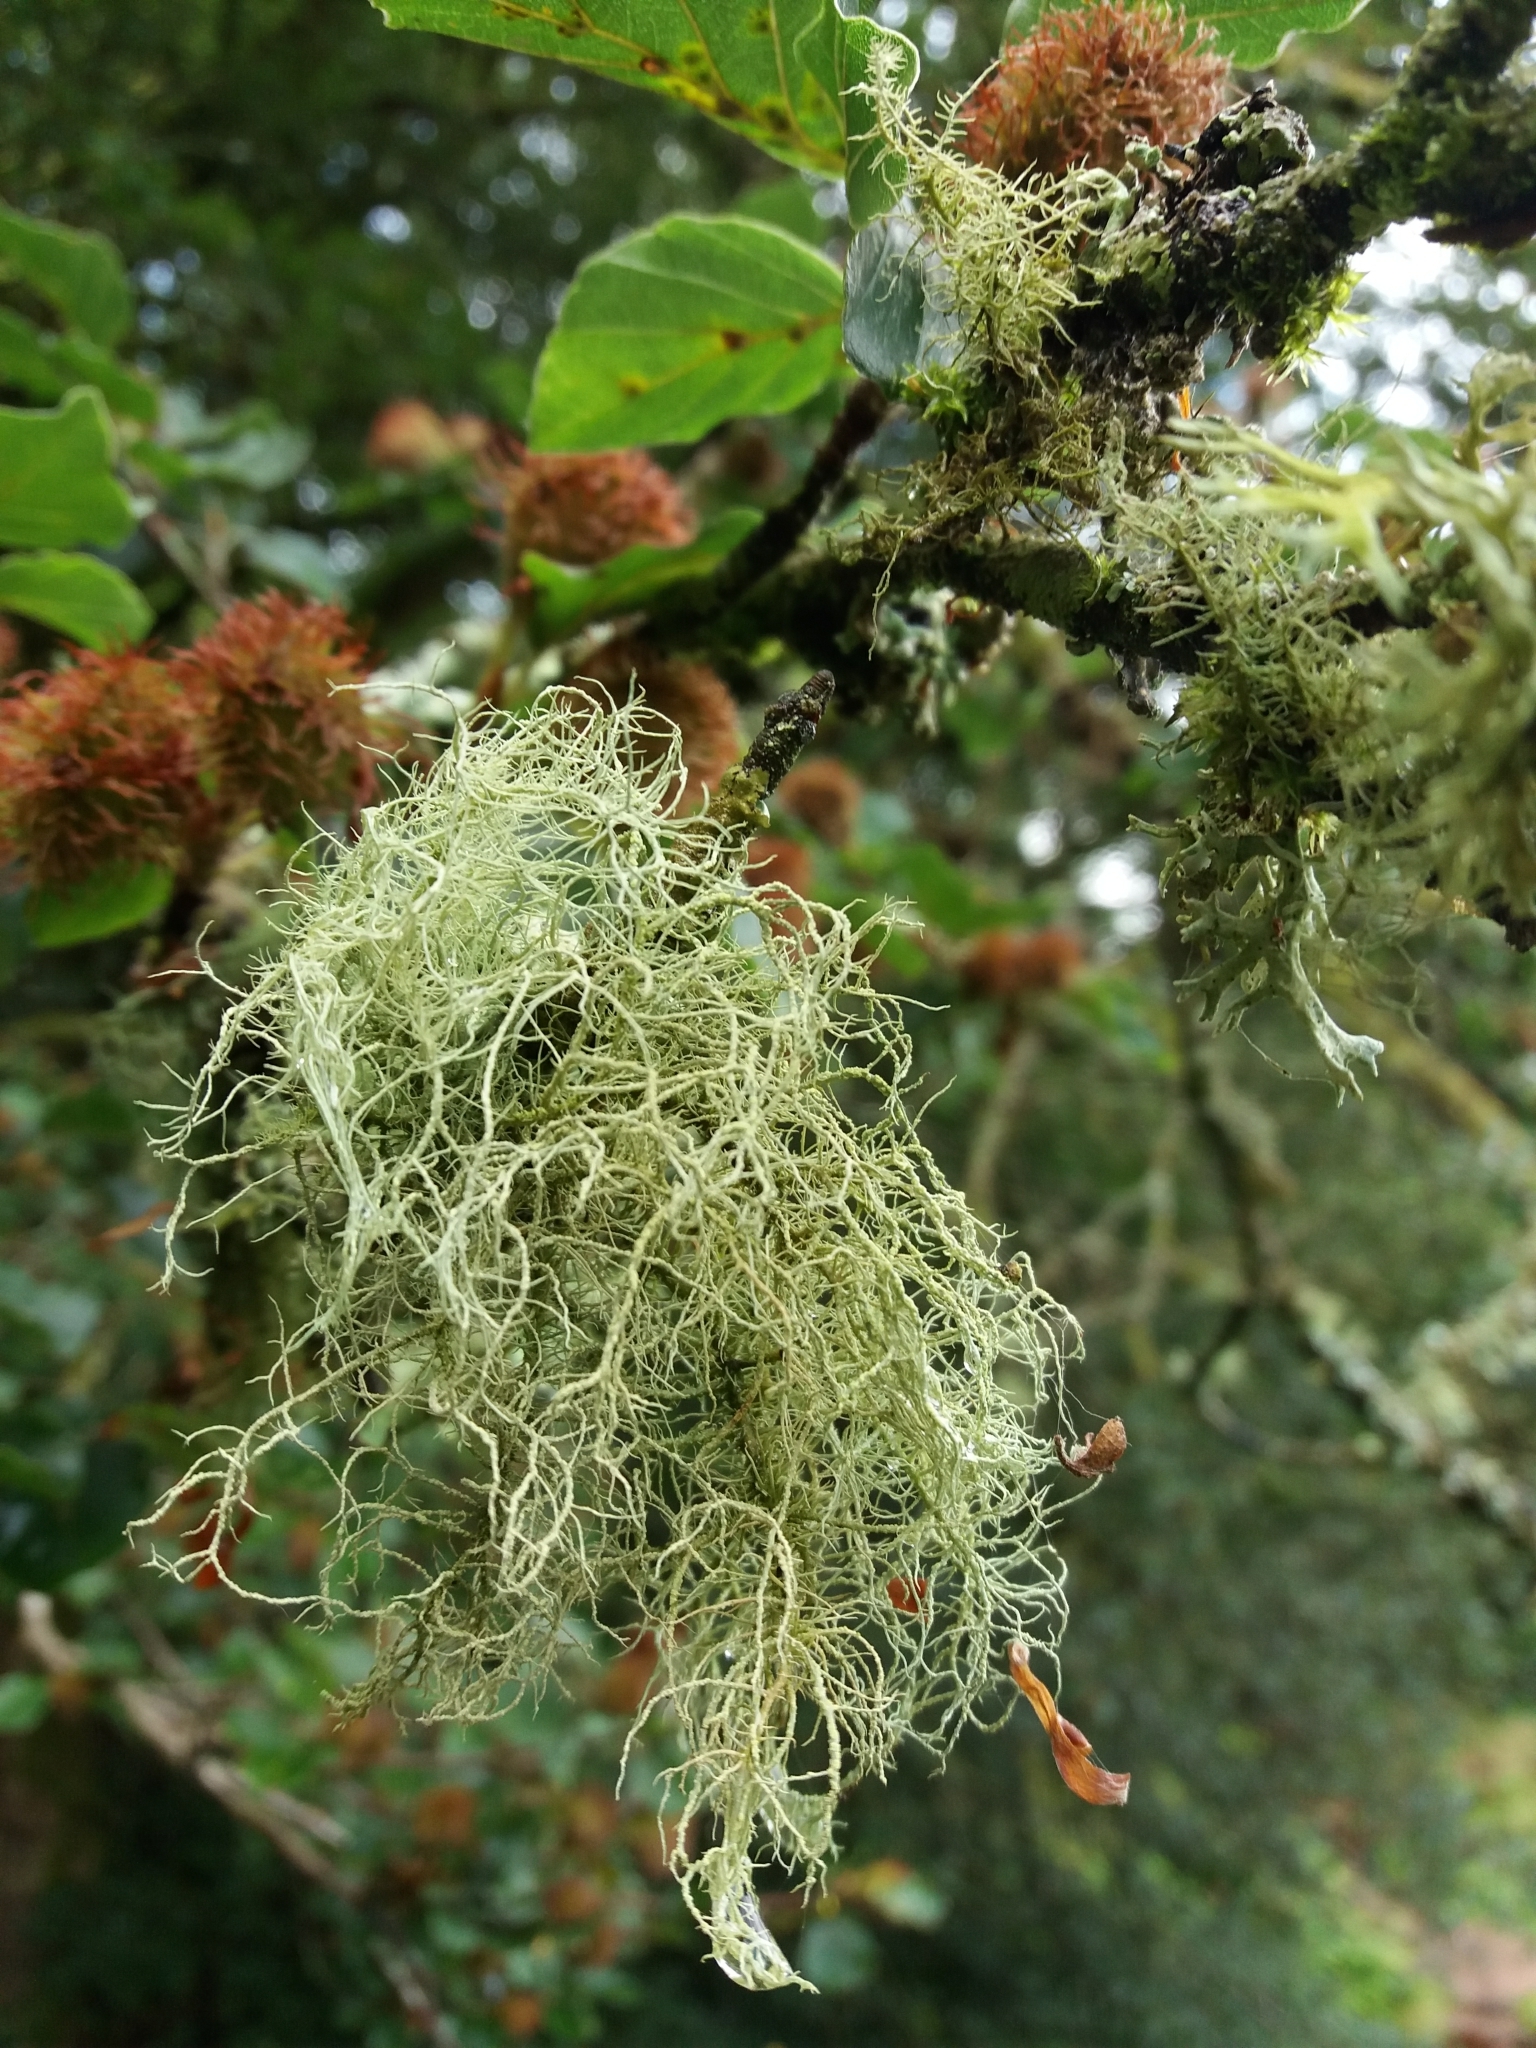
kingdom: Fungi
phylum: Ascomycota
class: Lecanoromycetes
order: Lecanorales
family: Parmeliaceae
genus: Usnea
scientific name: Usnea
